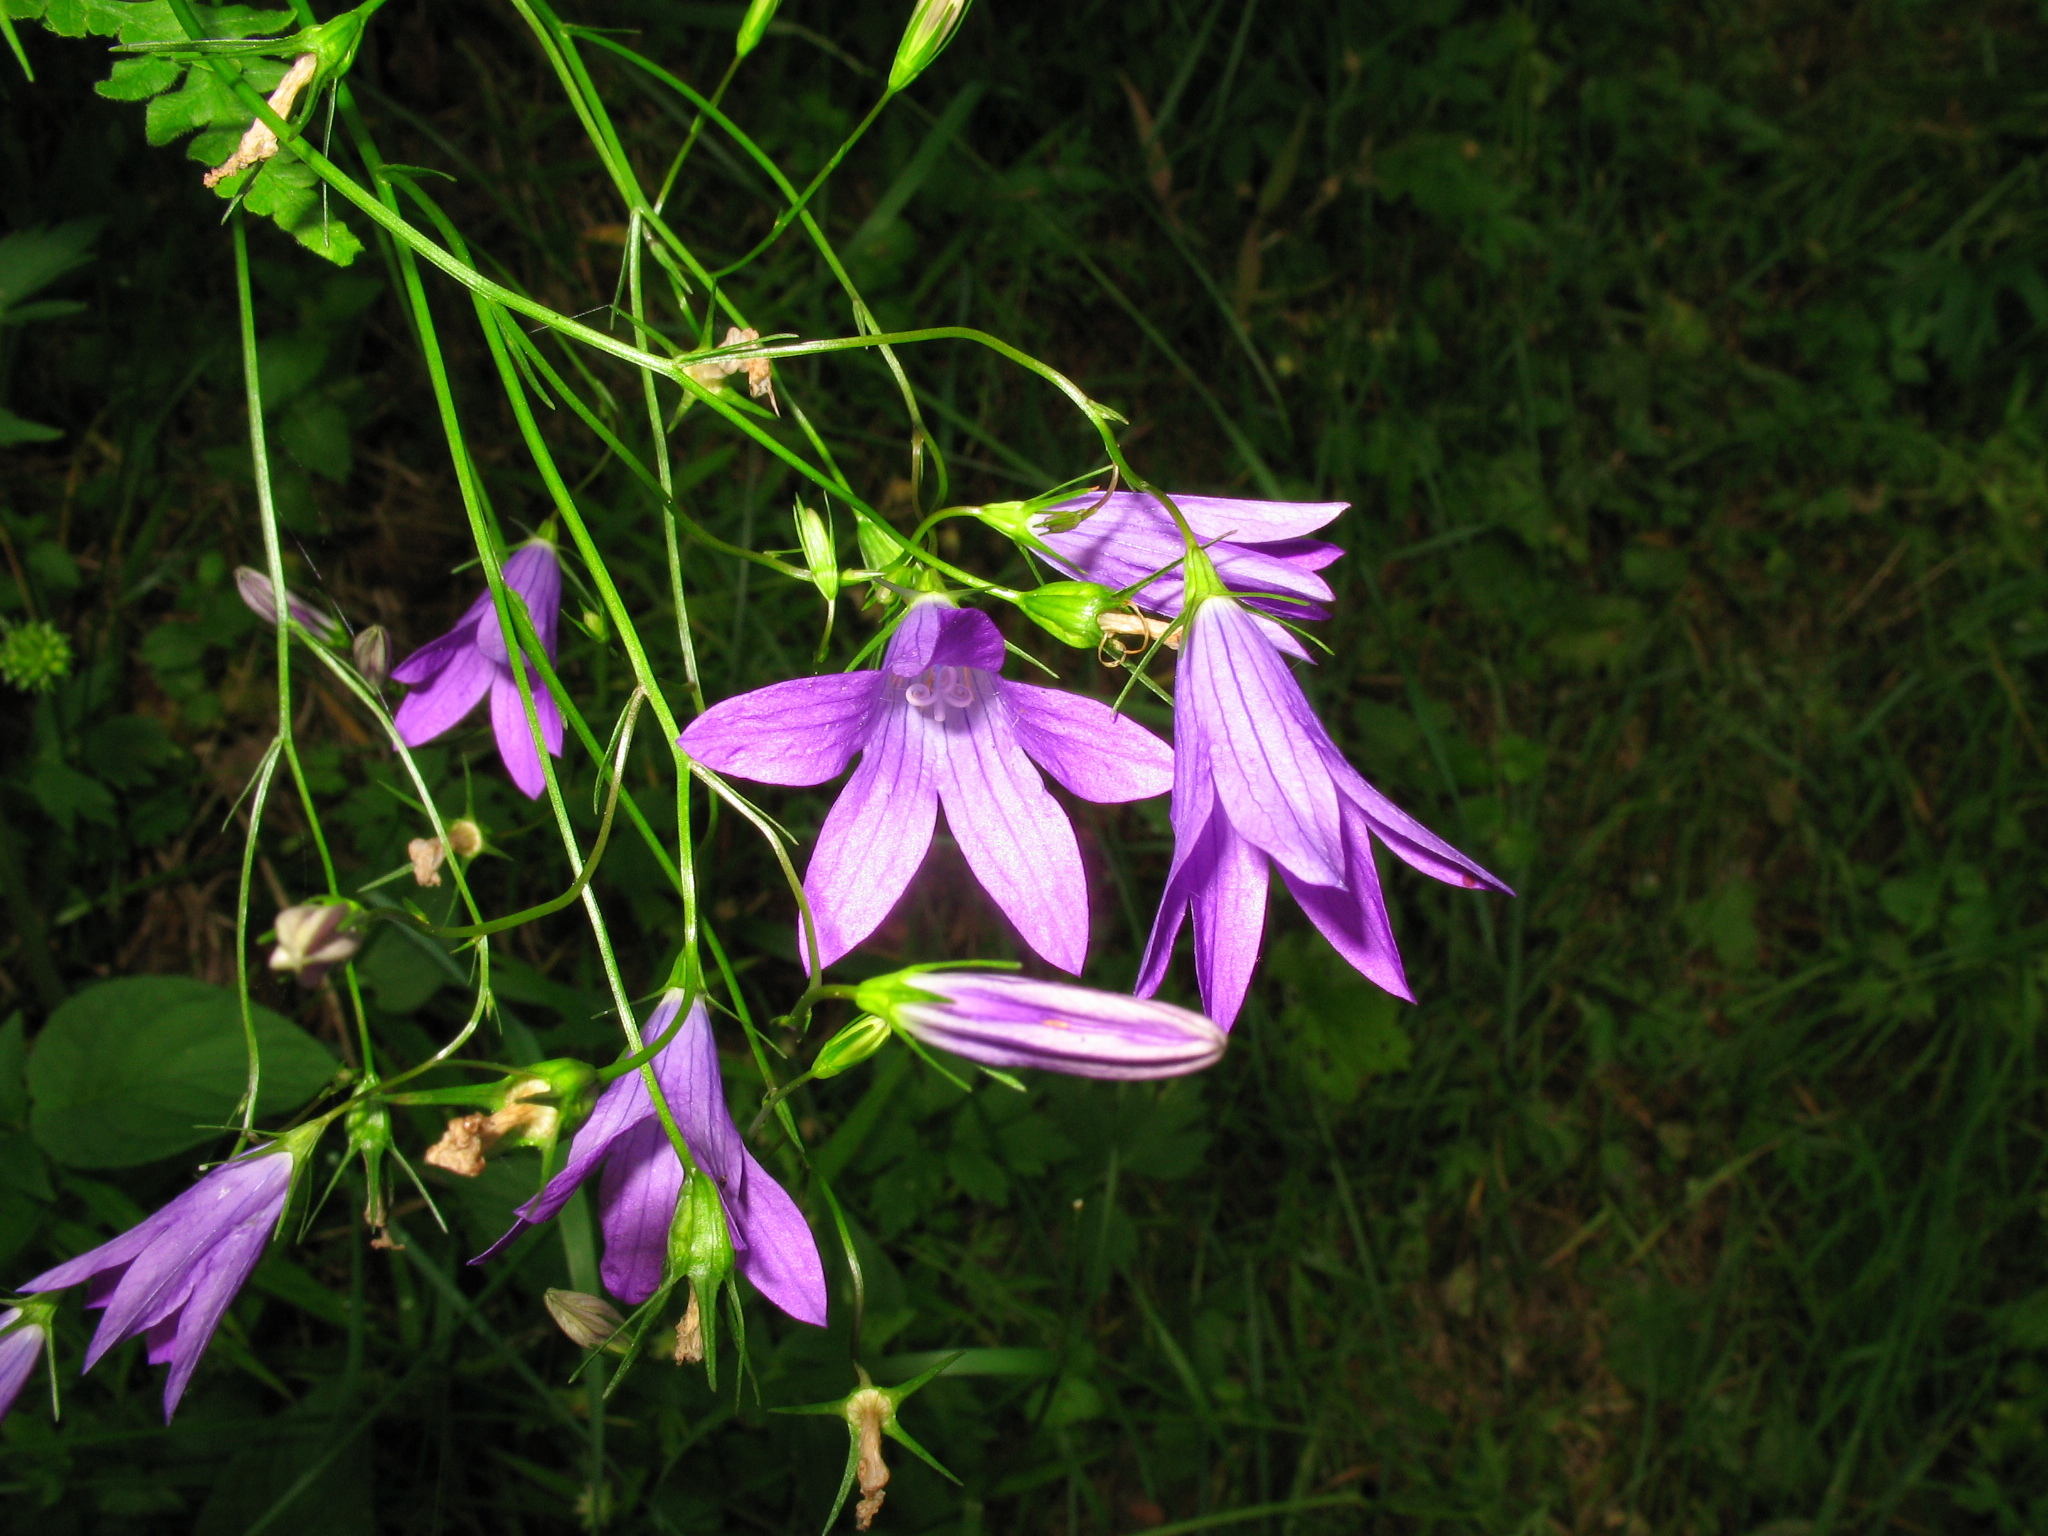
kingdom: Plantae
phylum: Tracheophyta
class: Magnoliopsida
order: Asterales
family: Campanulaceae
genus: Campanula
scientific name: Campanula patula
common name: Spreading bellflower
